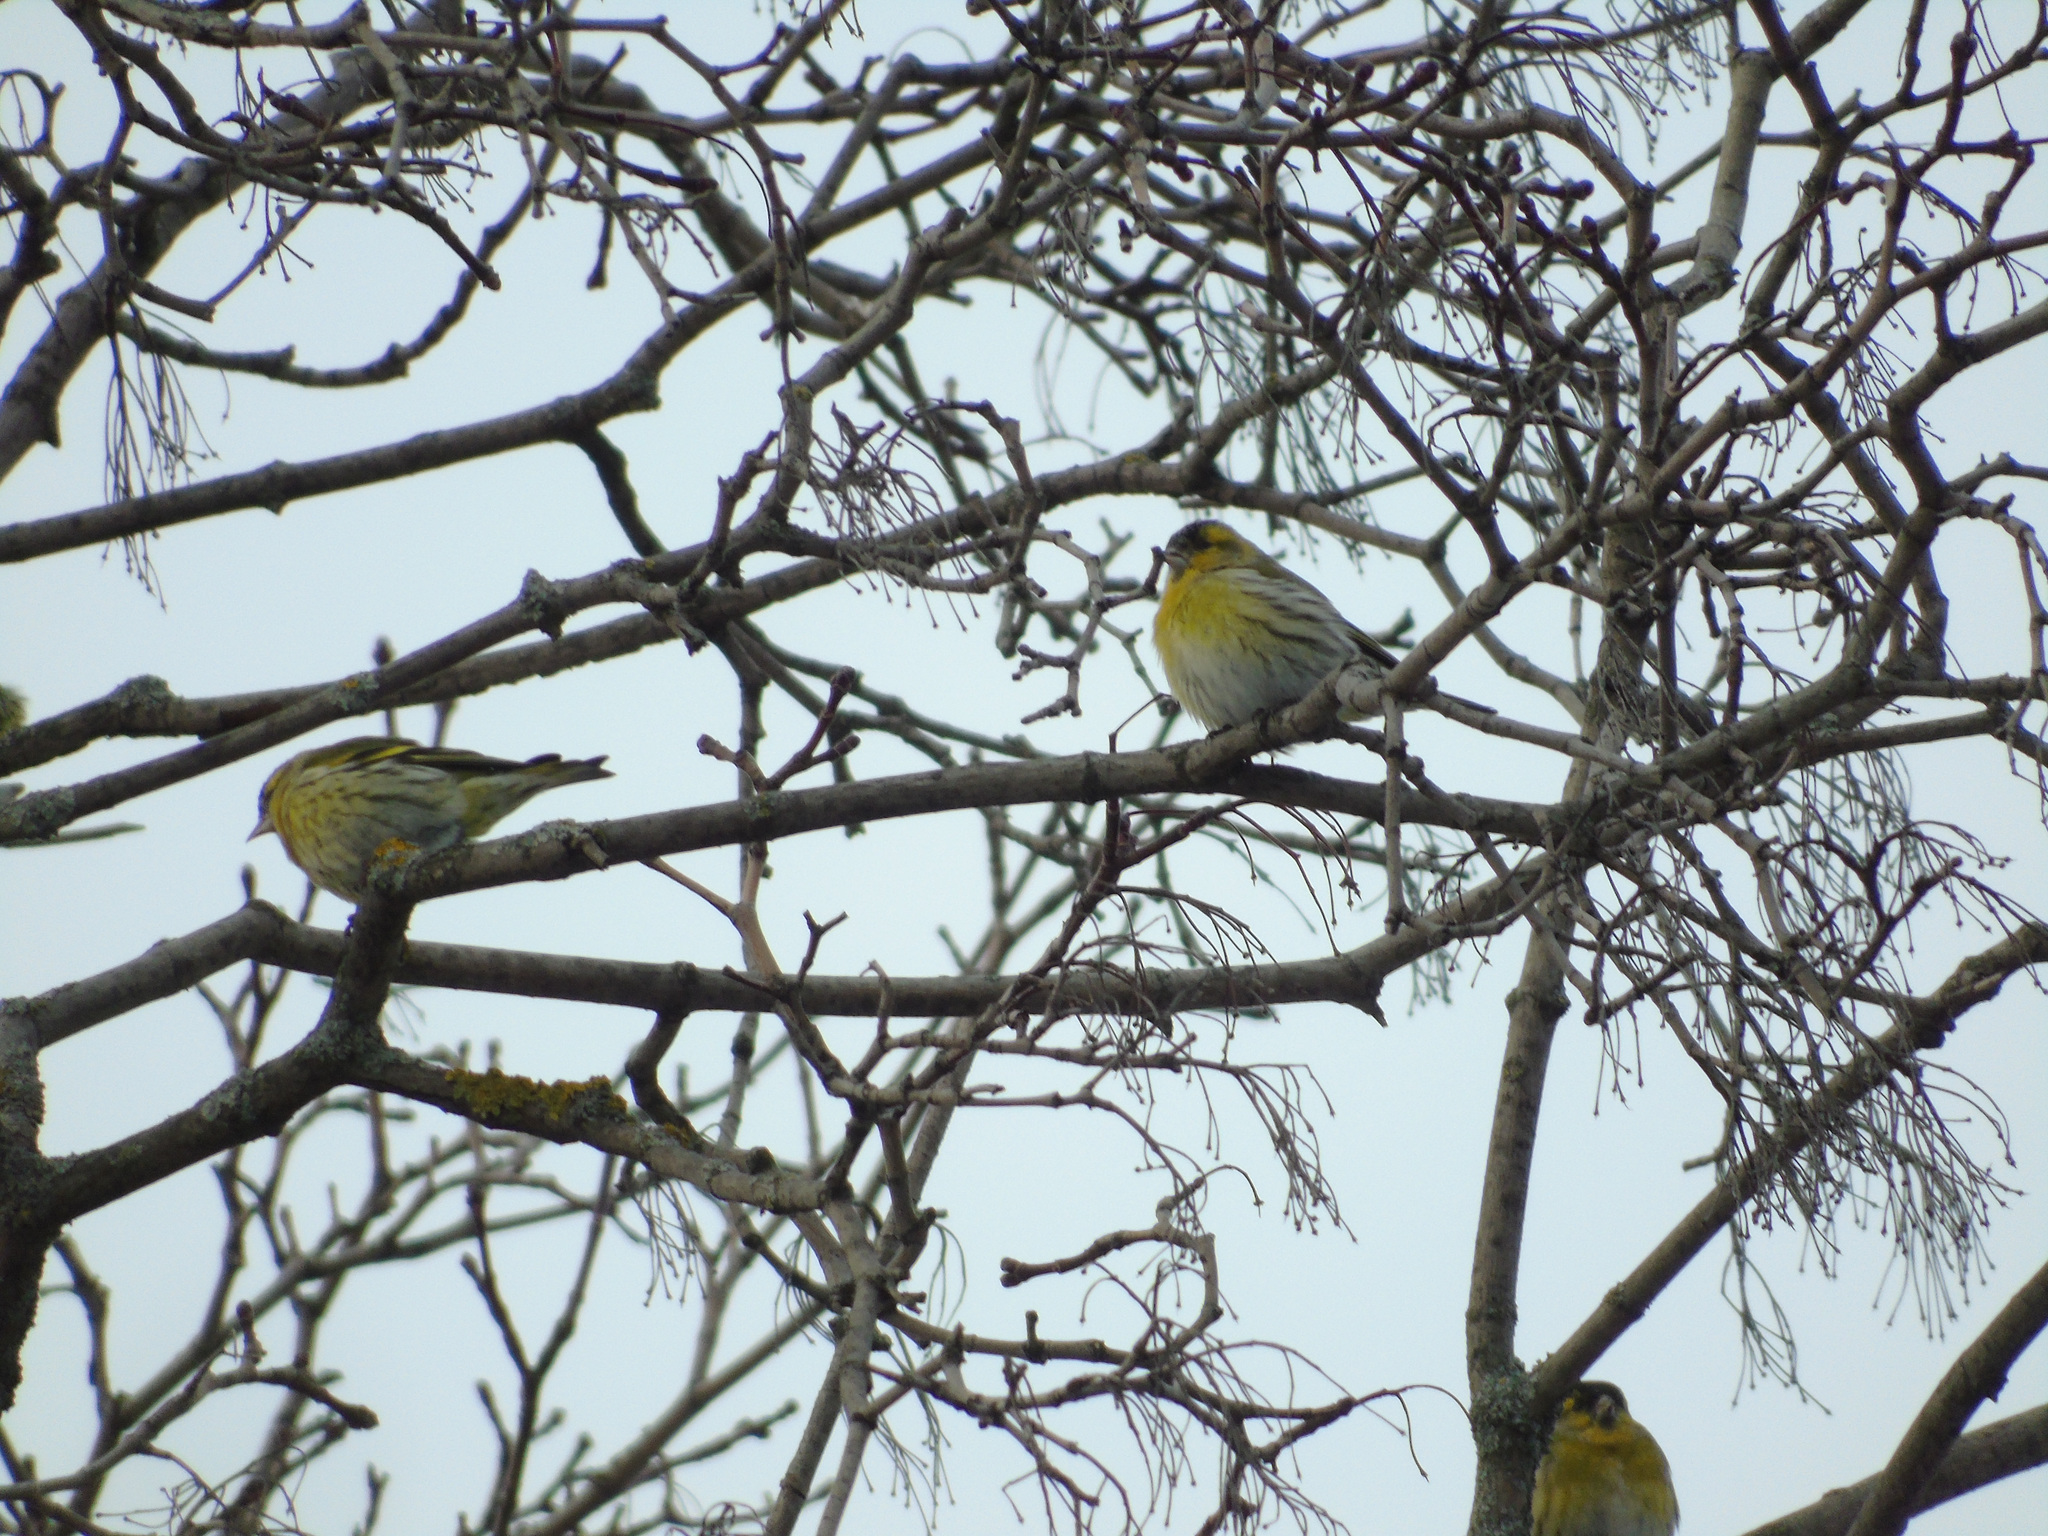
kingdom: Animalia
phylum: Chordata
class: Aves
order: Passeriformes
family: Fringillidae
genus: Spinus
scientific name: Spinus spinus
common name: Eurasian siskin
